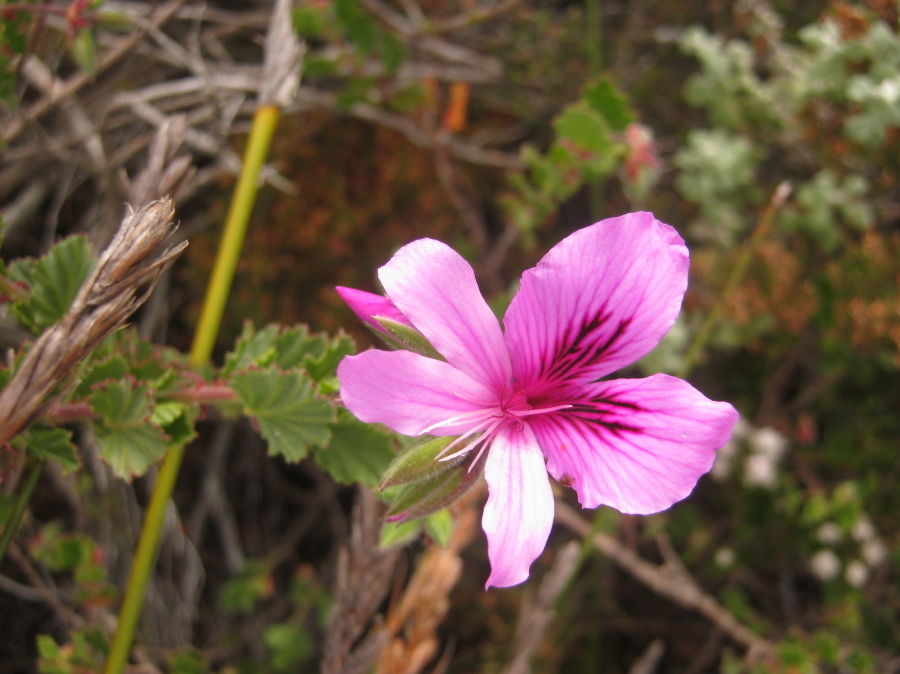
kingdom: Plantae
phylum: Tracheophyta
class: Magnoliopsida
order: Geraniales
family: Geraniaceae
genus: Pelargonium
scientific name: Pelargonium betulinum
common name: Birch-leaf pelargonium
